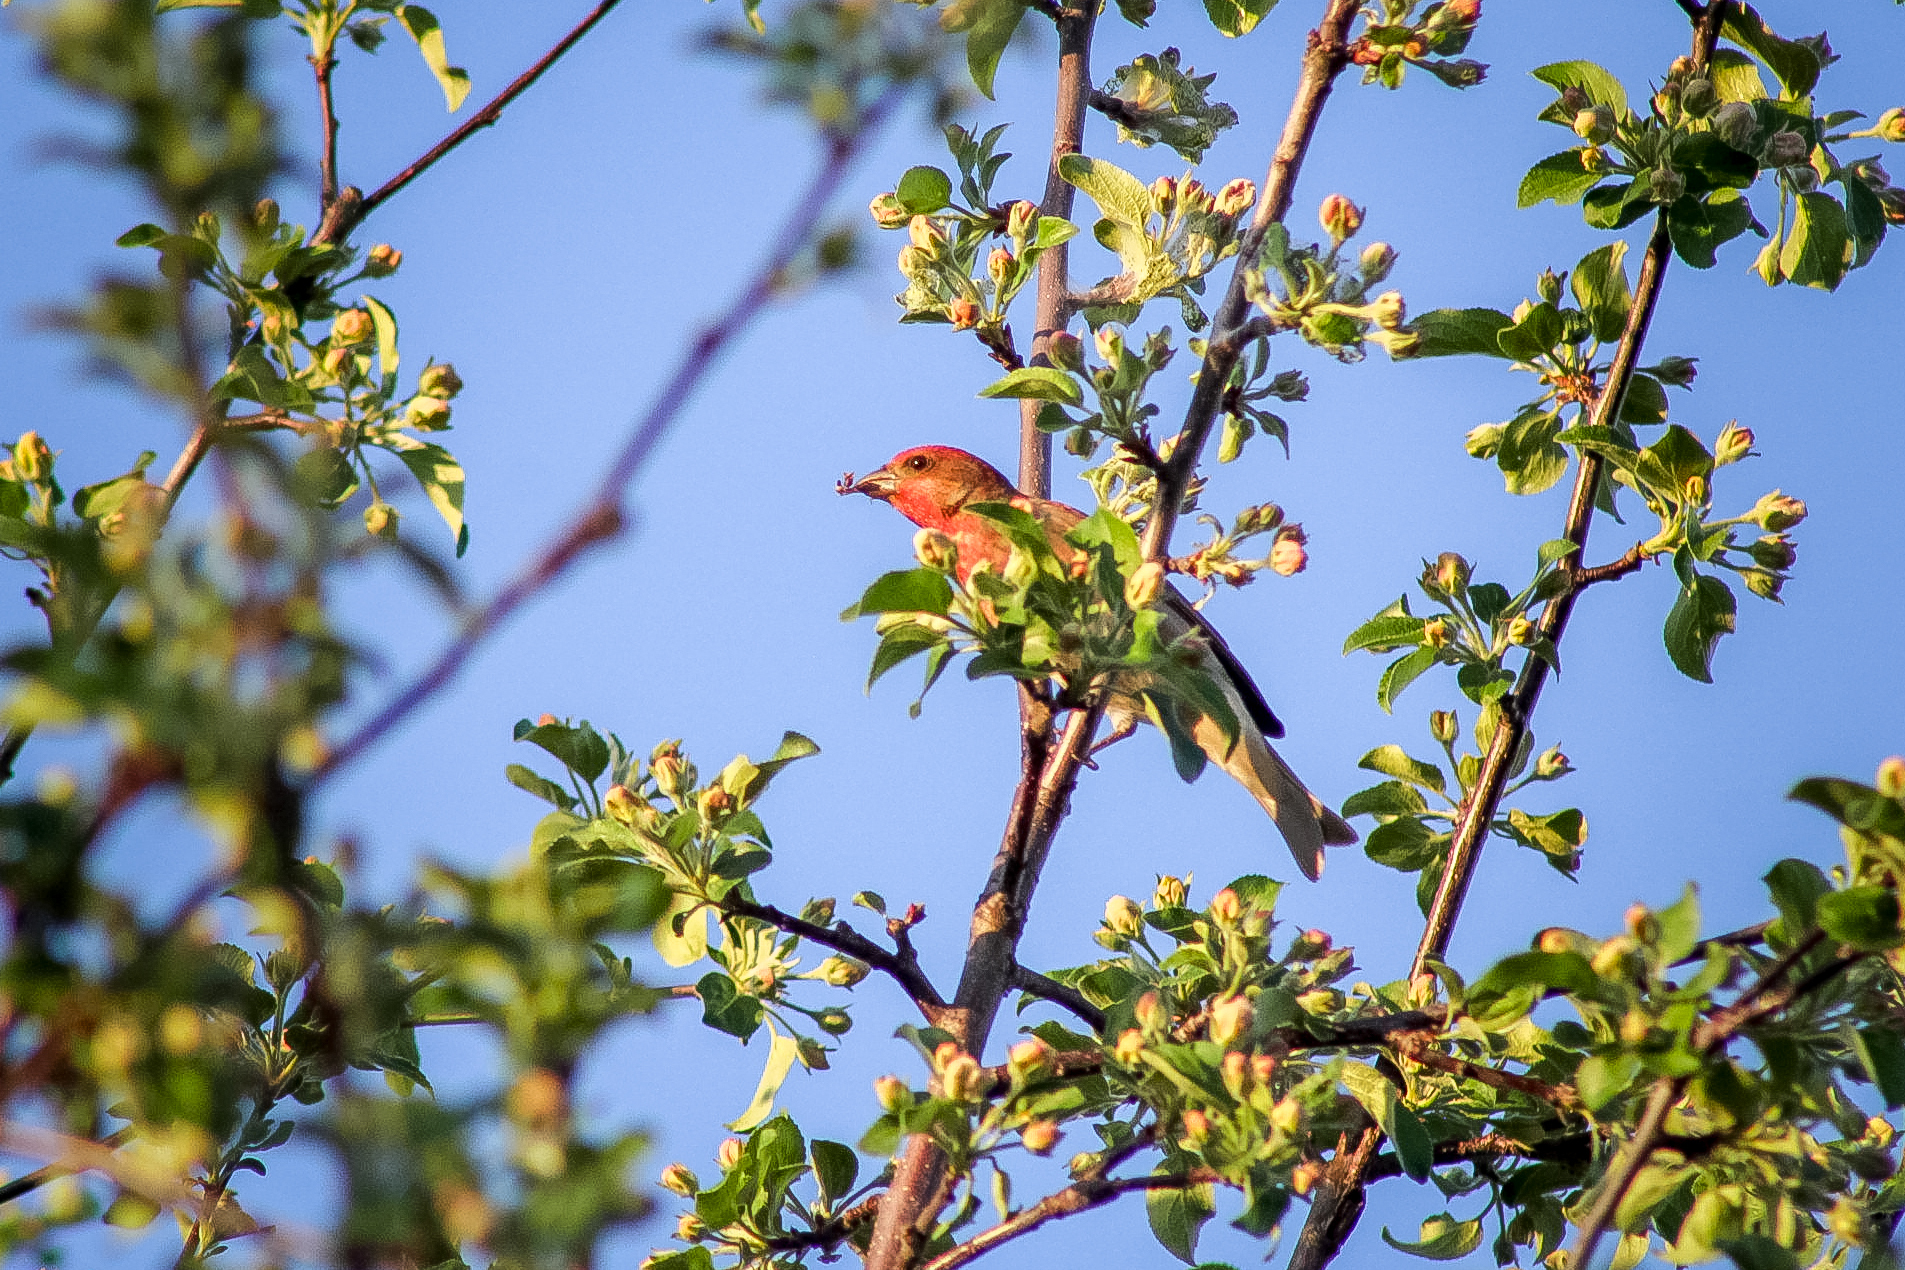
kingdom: Animalia
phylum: Chordata
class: Aves
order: Passeriformes
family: Fringillidae
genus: Carpodacus
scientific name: Carpodacus erythrinus
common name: Common rosefinch
